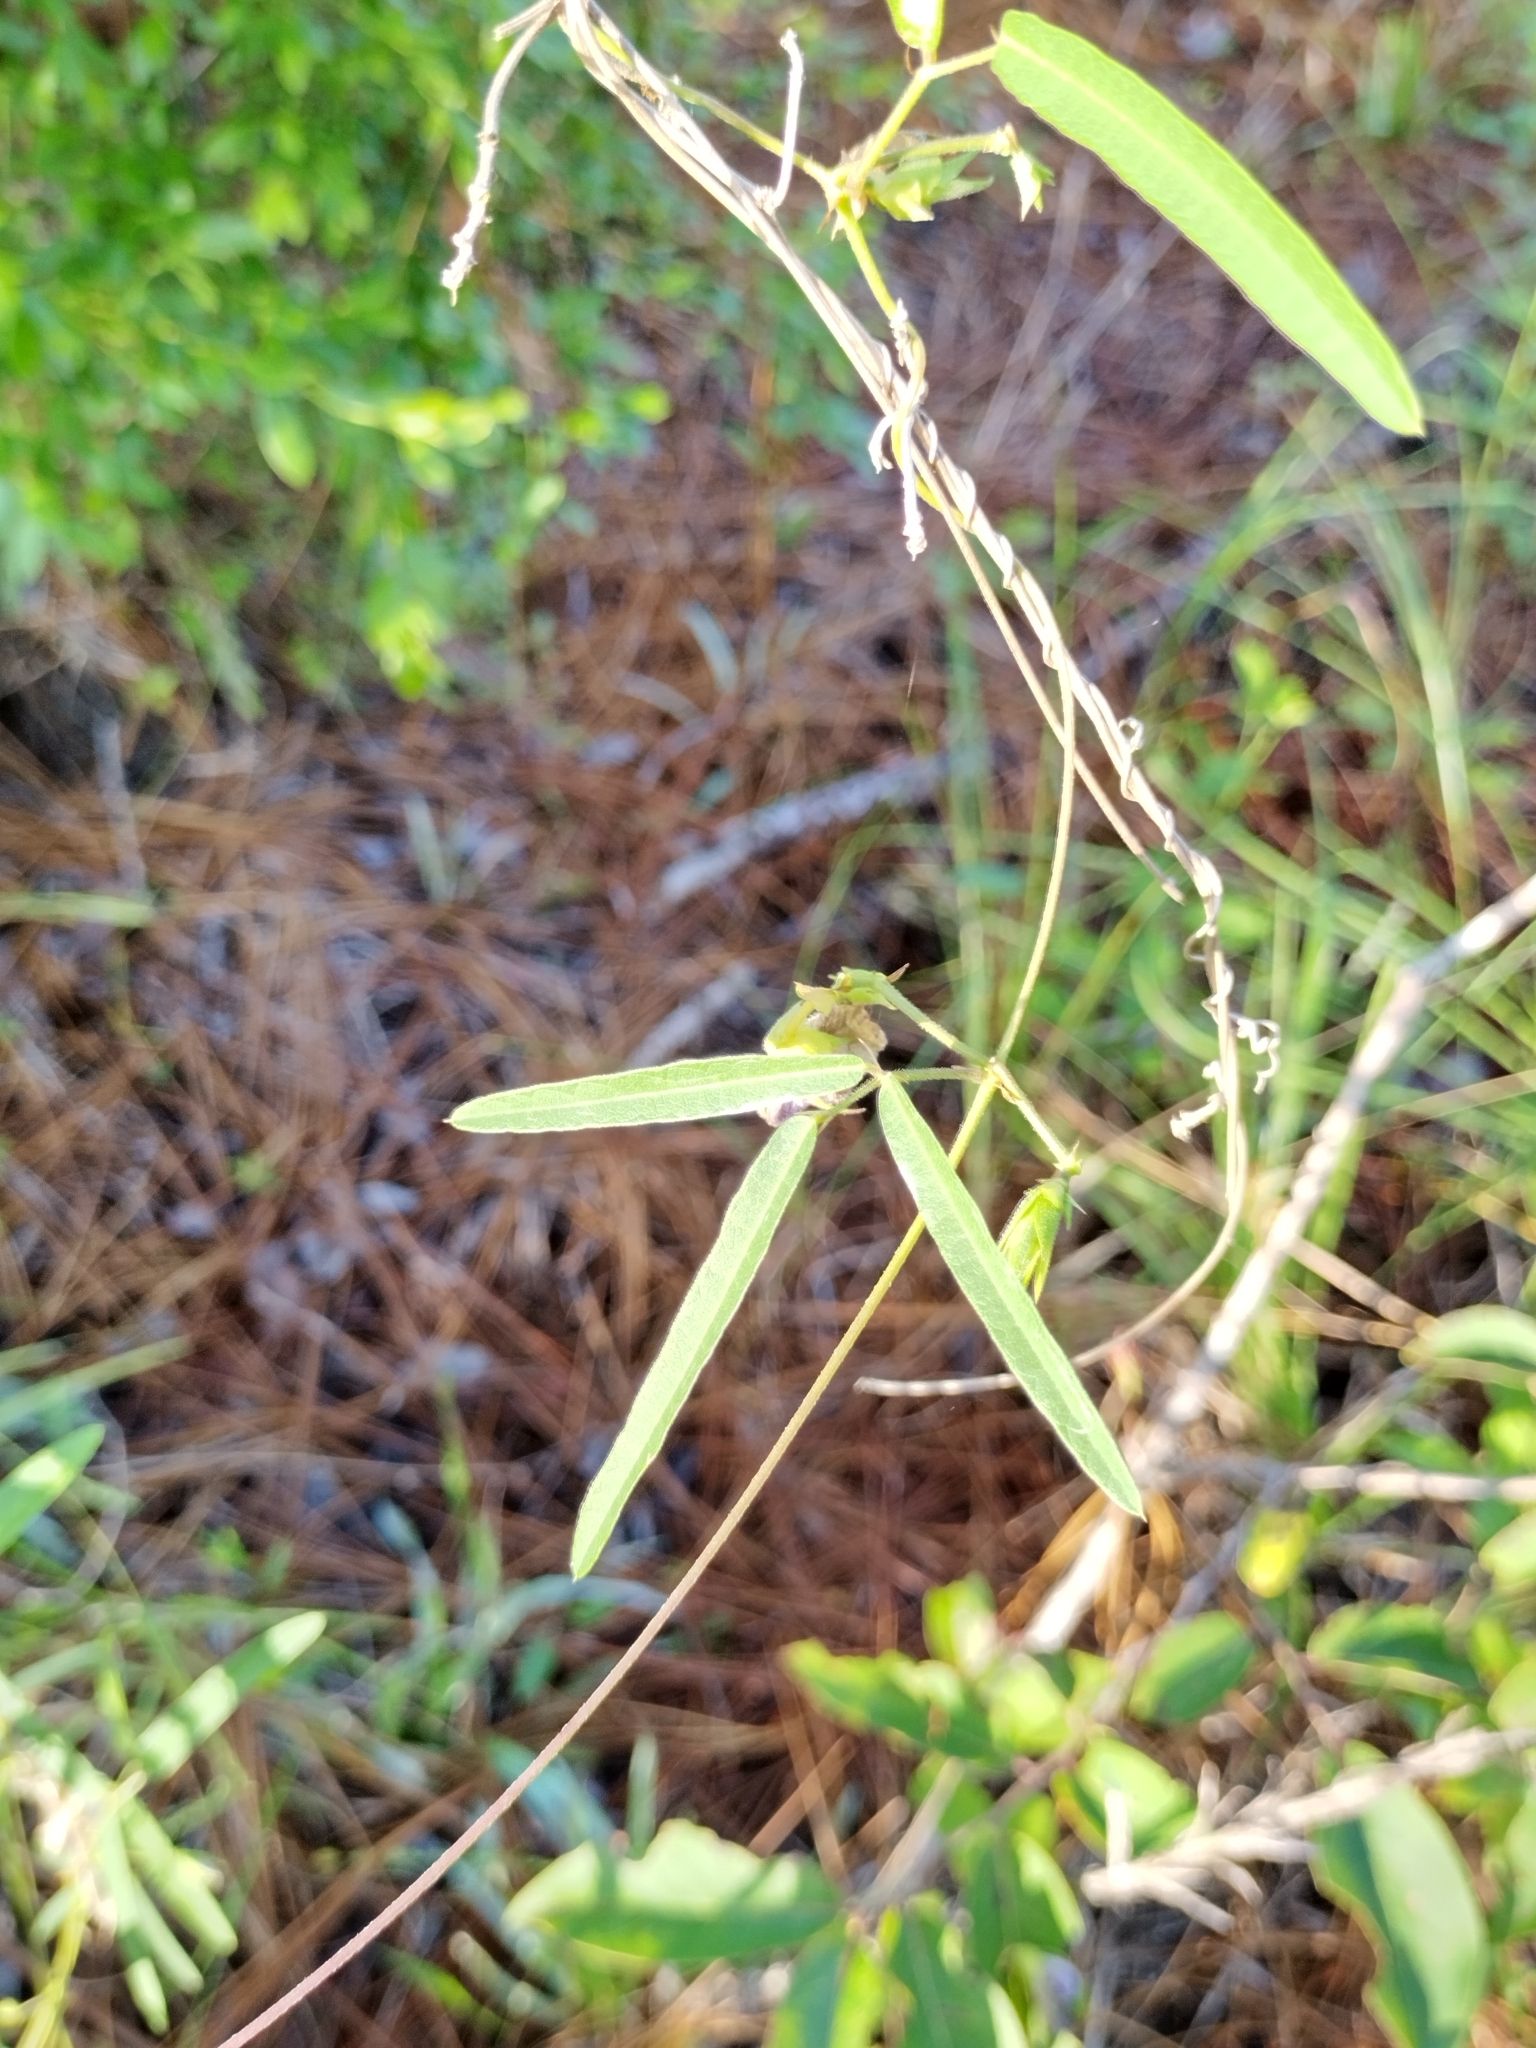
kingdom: Plantae
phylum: Tracheophyta
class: Magnoliopsida
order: Fabales
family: Fabaceae
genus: Centrosema
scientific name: Centrosema virginianum
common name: Butterfly-pea
